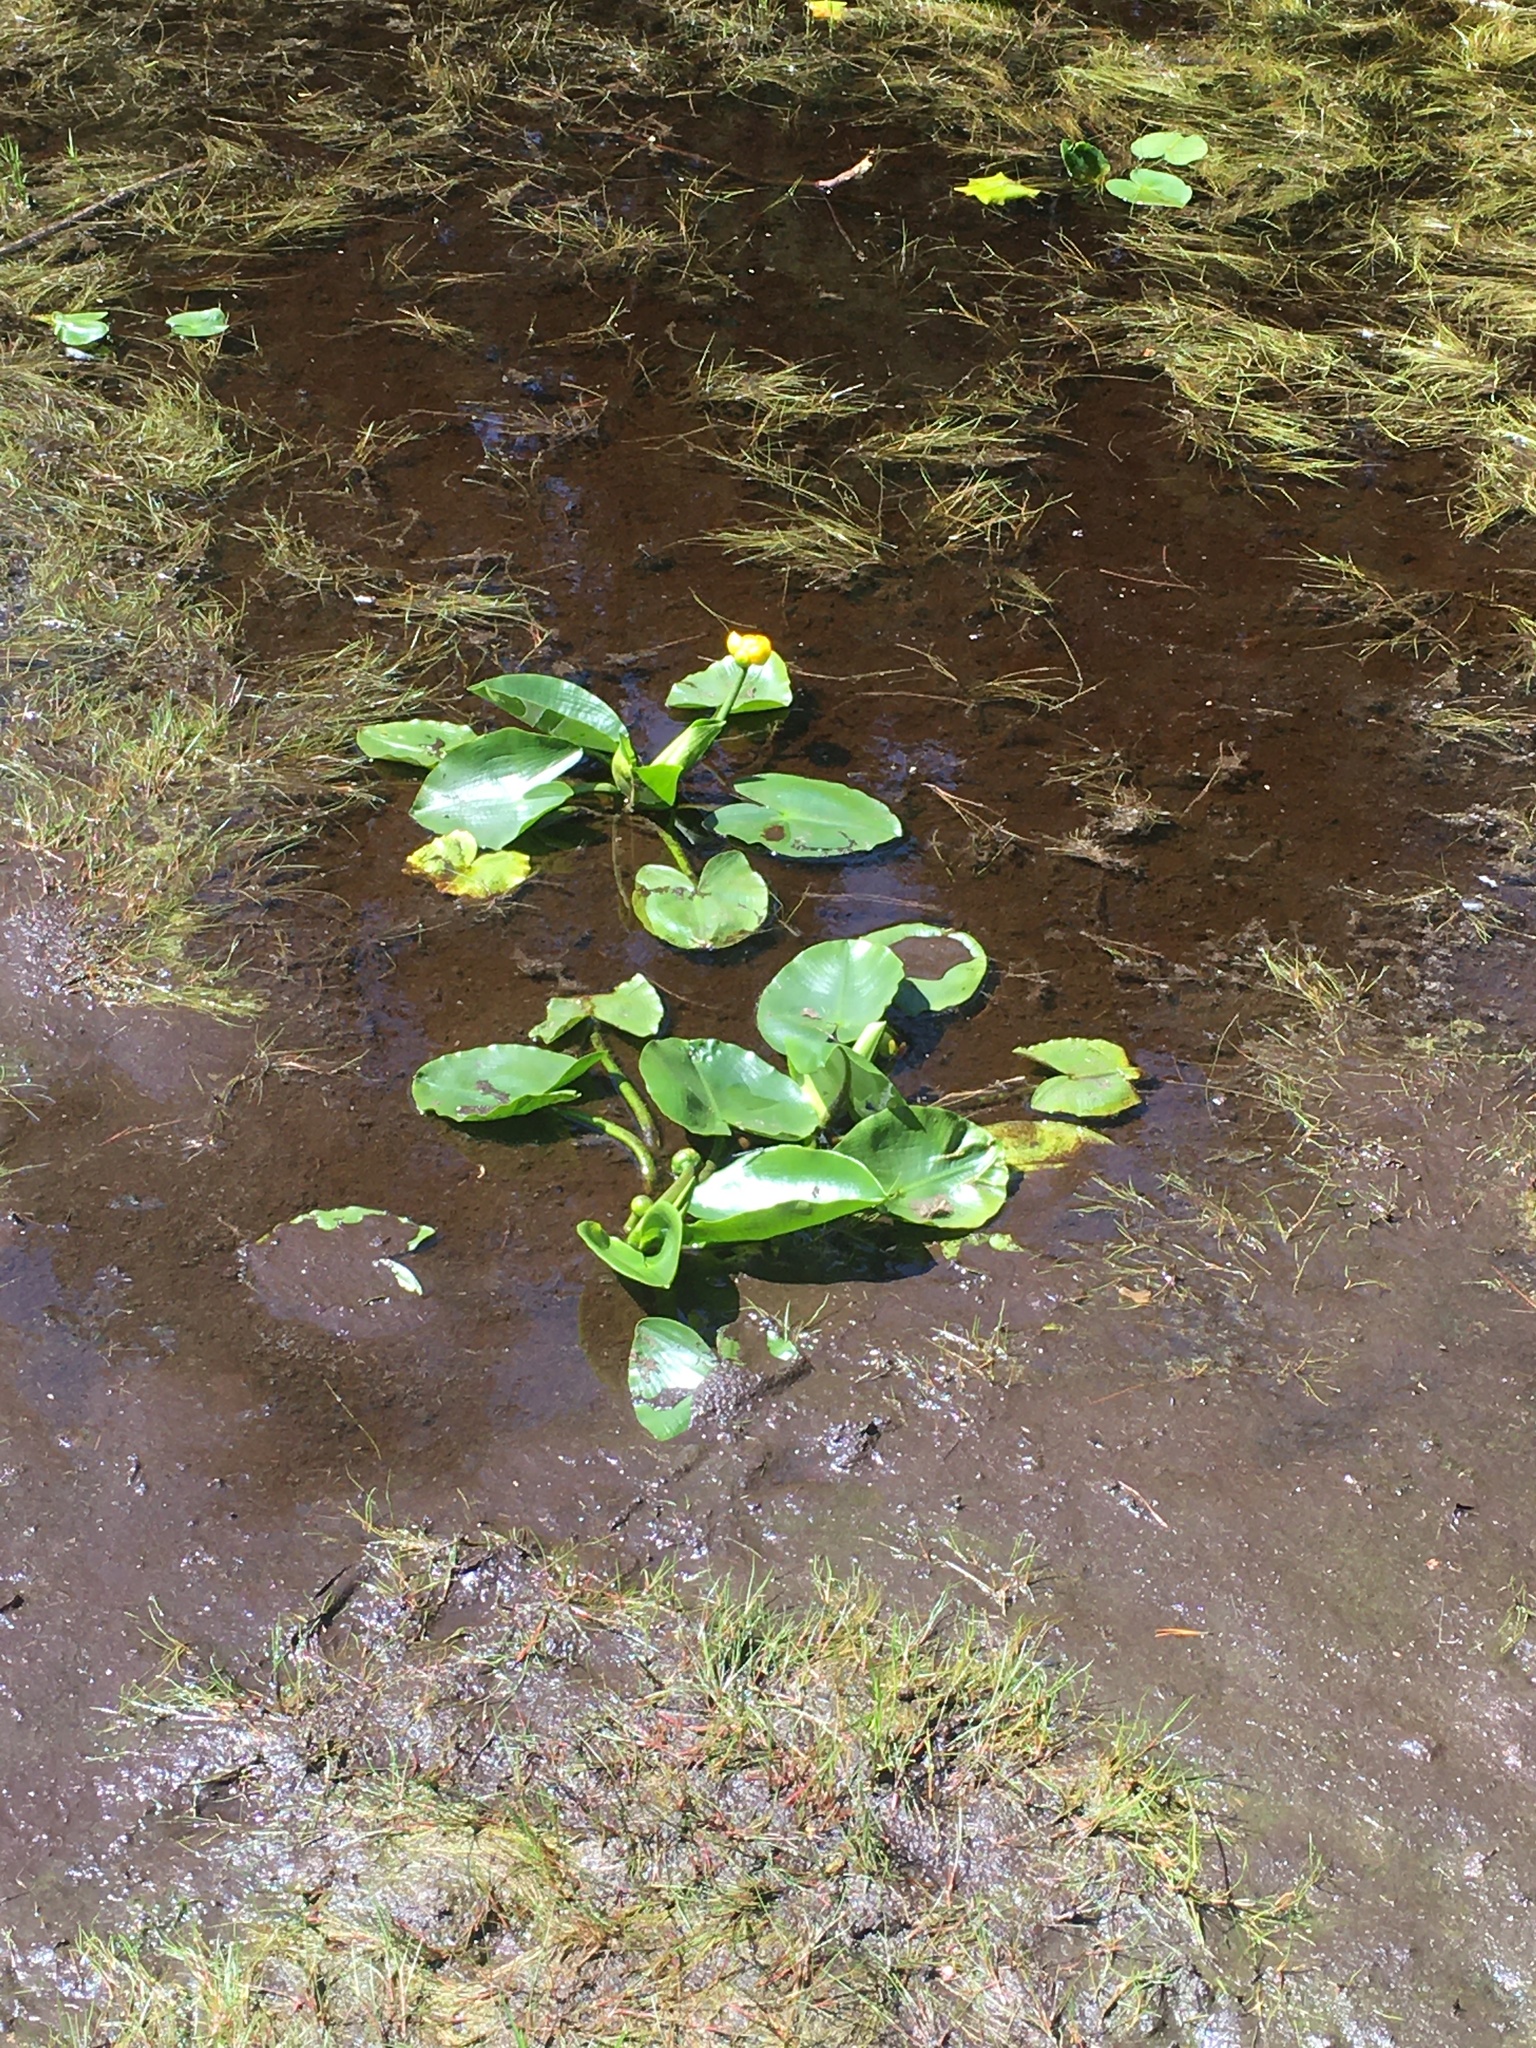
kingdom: Plantae
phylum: Tracheophyta
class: Magnoliopsida
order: Nymphaeales
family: Nymphaeaceae
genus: Nuphar
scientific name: Nuphar polysepala
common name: Rocky mountain cow-lily
